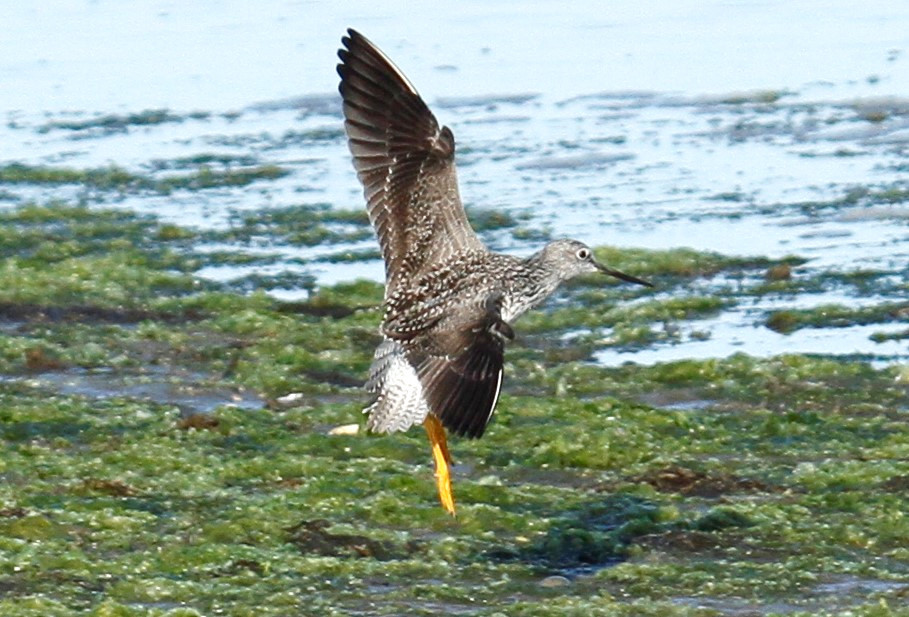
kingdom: Animalia
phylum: Chordata
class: Aves
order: Charadriiformes
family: Scolopacidae
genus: Tringa
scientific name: Tringa melanoleuca
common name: Greater yellowlegs
